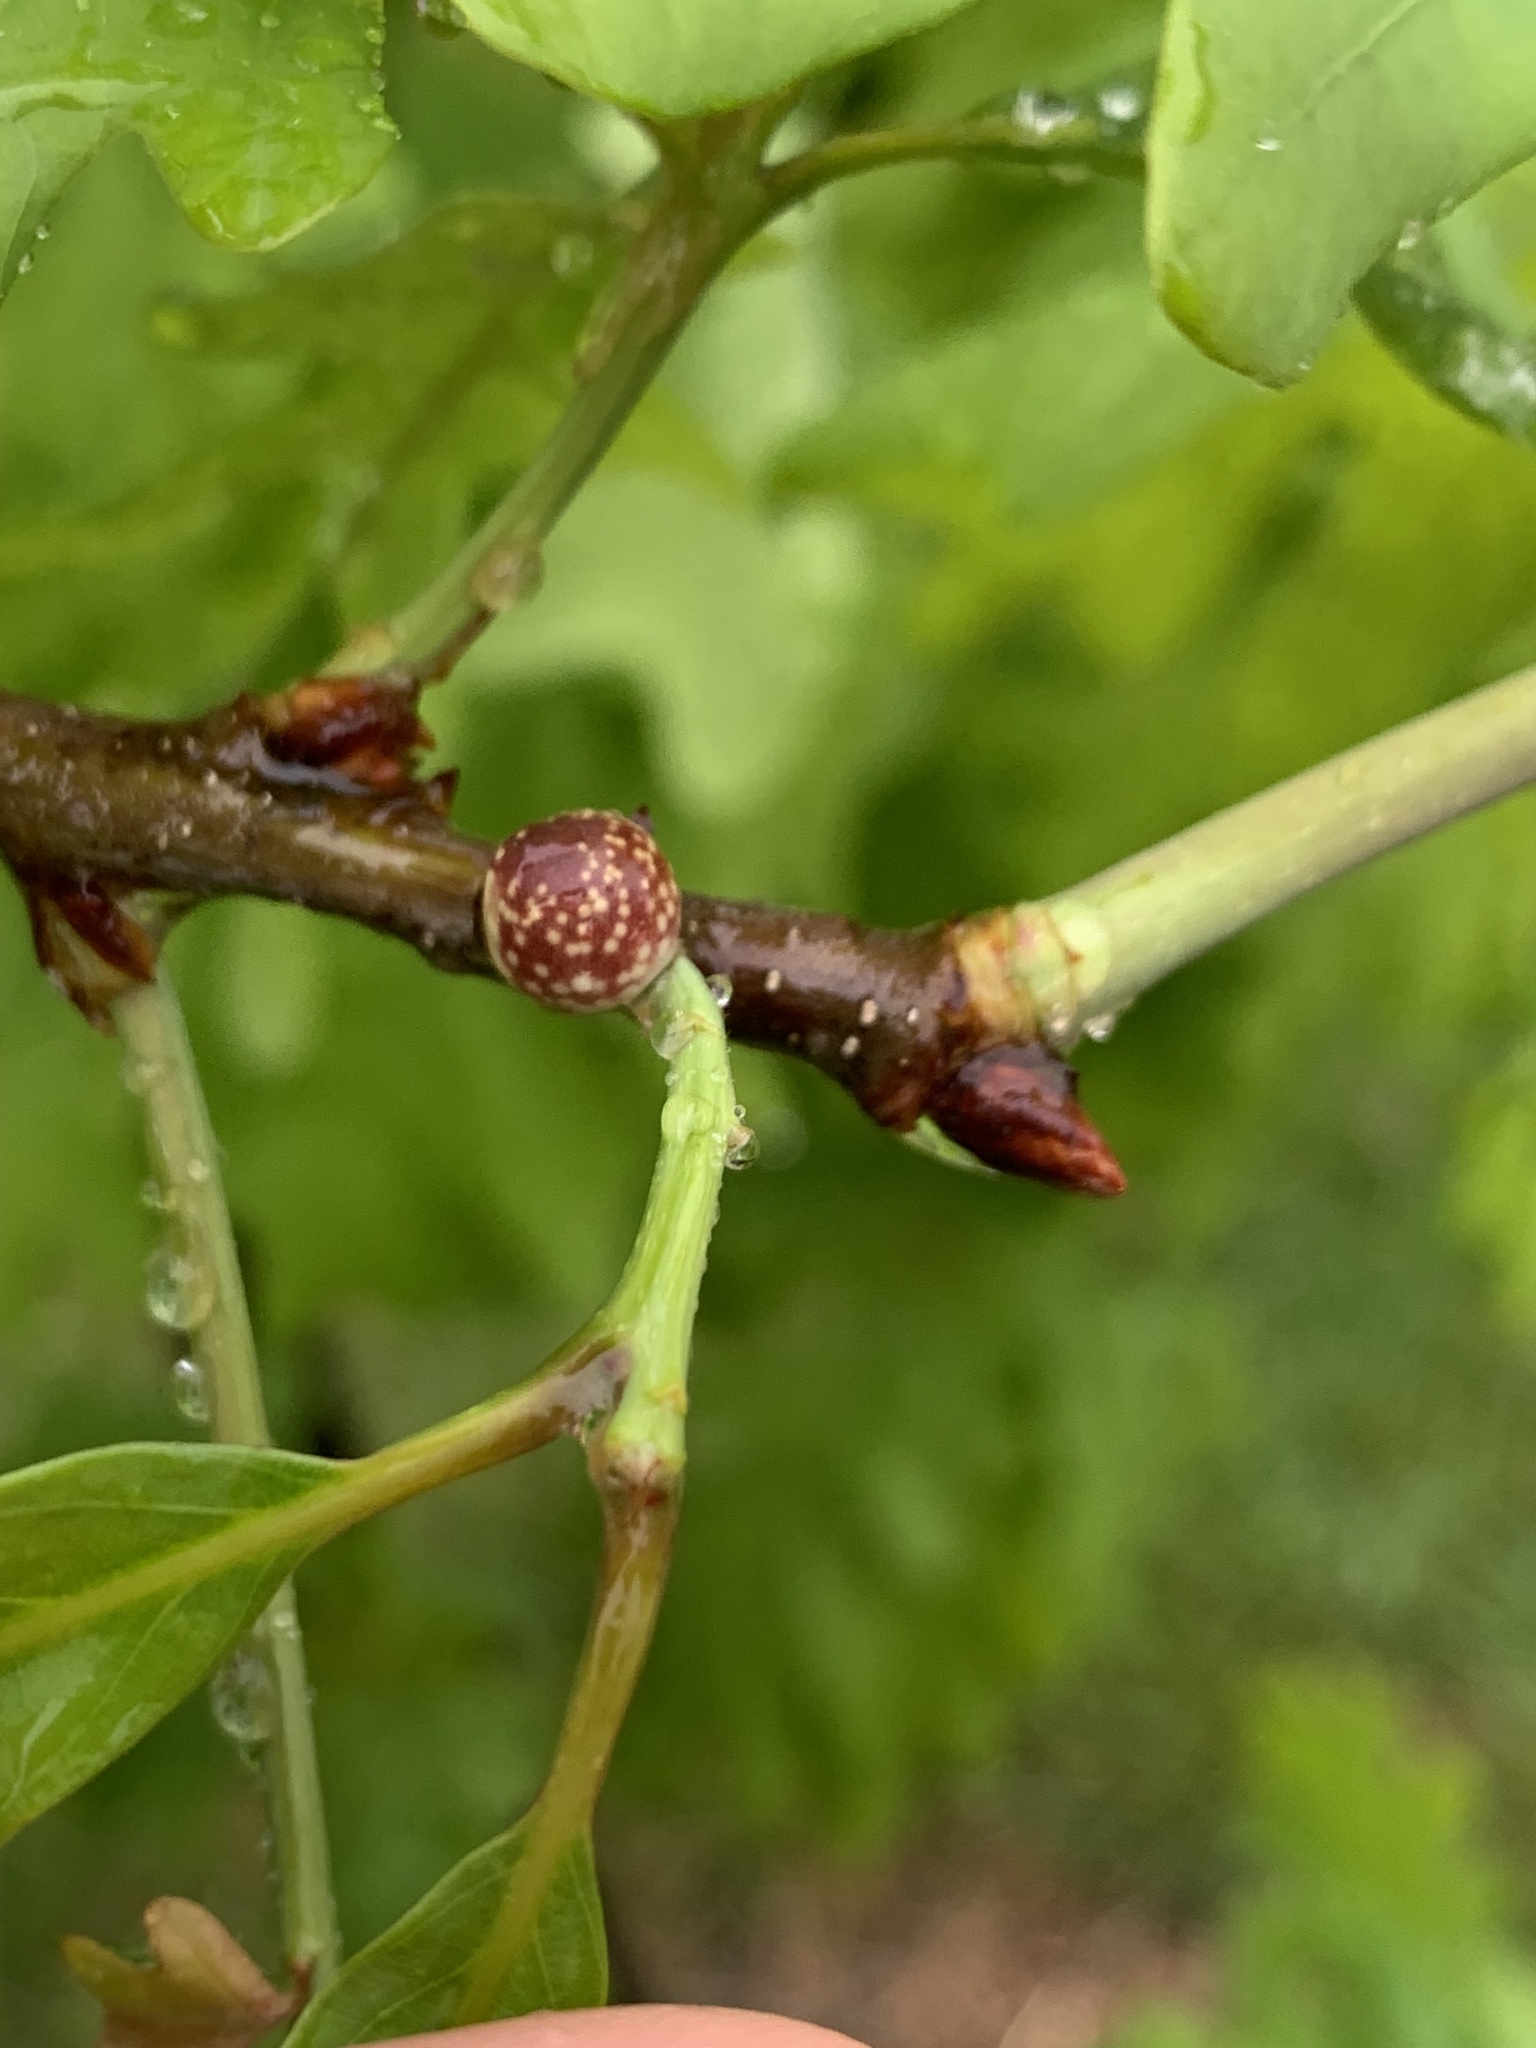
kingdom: Animalia
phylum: Arthropoda
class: Insecta
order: Hymenoptera
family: Cynipidae
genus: Andricus
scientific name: Andricus
